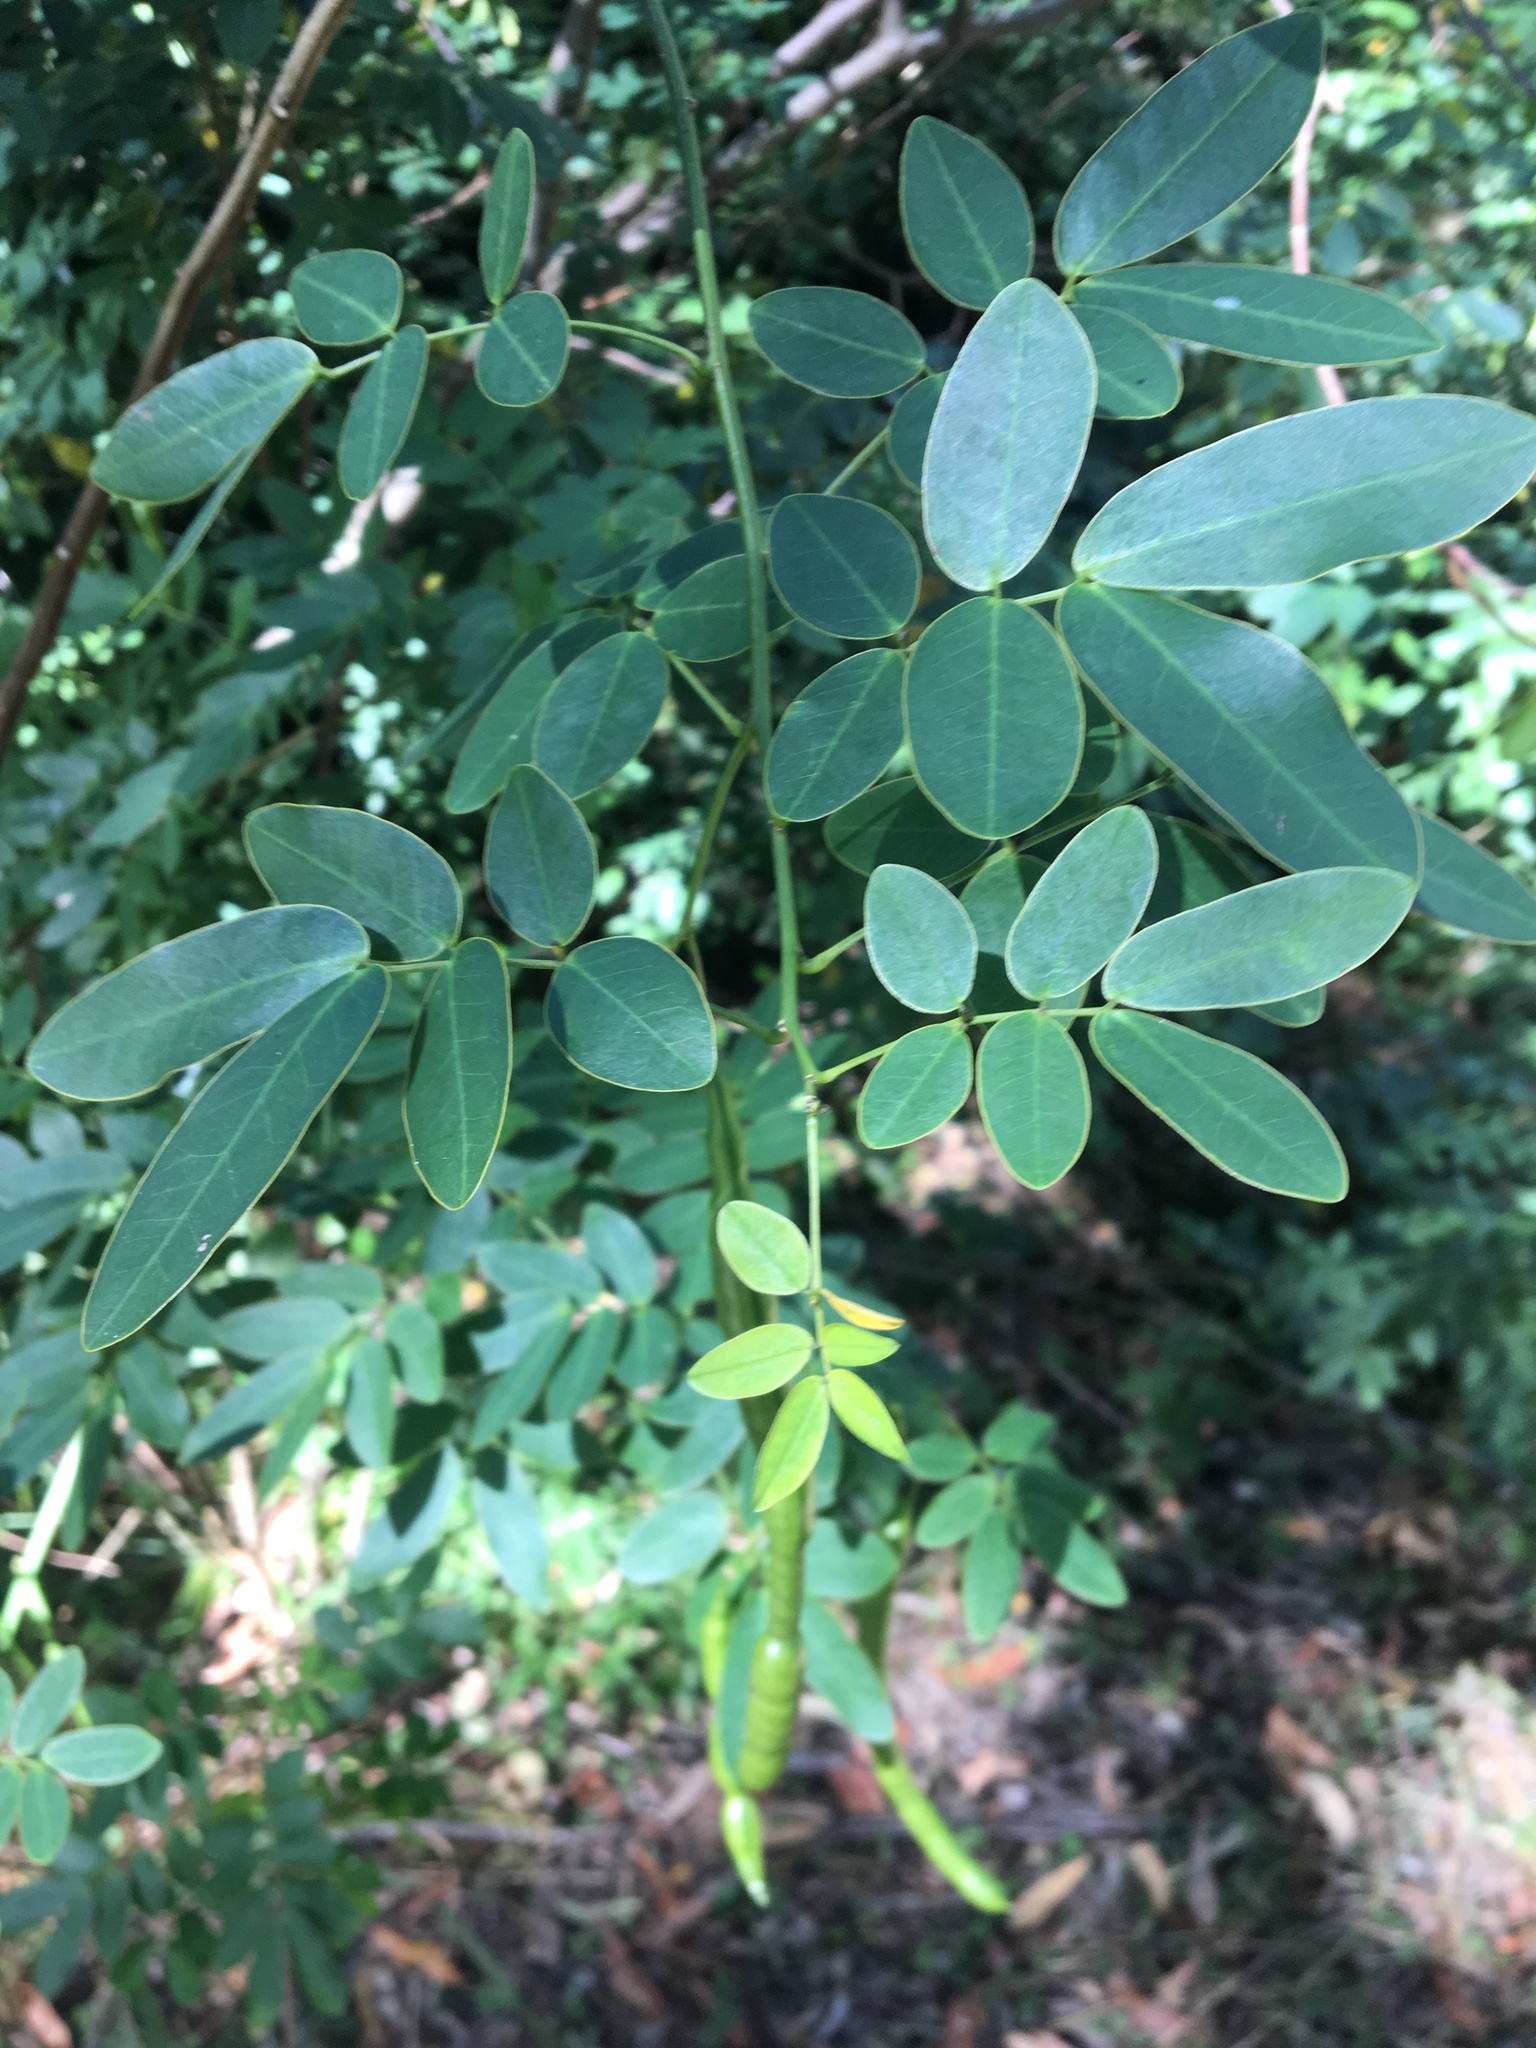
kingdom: Plantae
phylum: Tracheophyta
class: Magnoliopsida
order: Fabales
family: Fabaceae
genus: Senna
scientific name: Senna pendula
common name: Easter cassia
